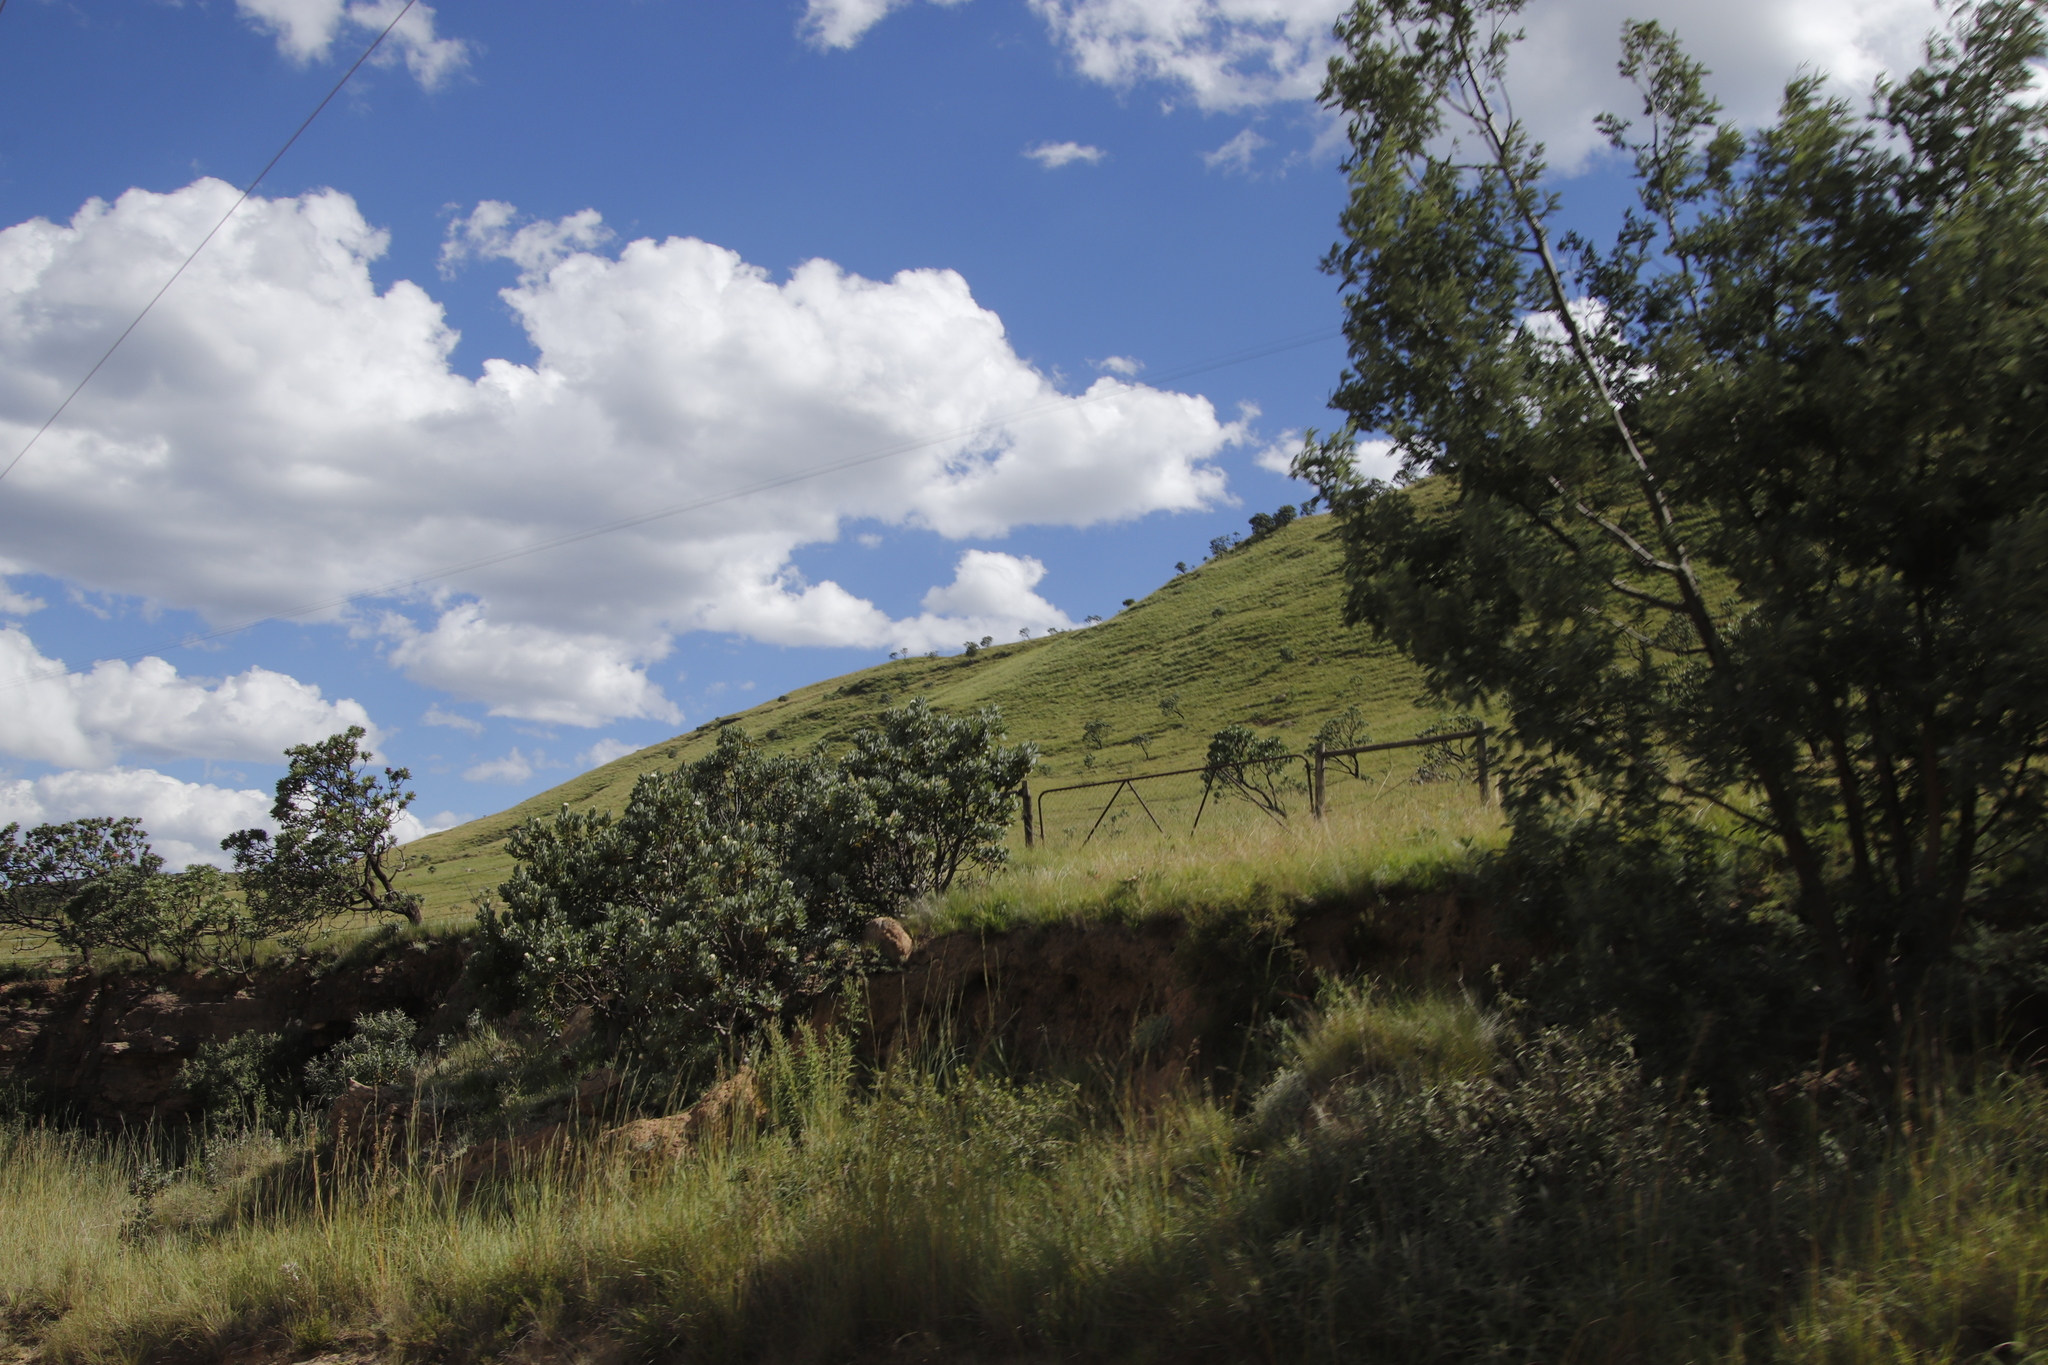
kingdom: Plantae
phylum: Tracheophyta
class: Magnoliopsida
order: Proteales
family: Proteaceae
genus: Protea
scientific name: Protea roupelliae
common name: Silver sugarbush
